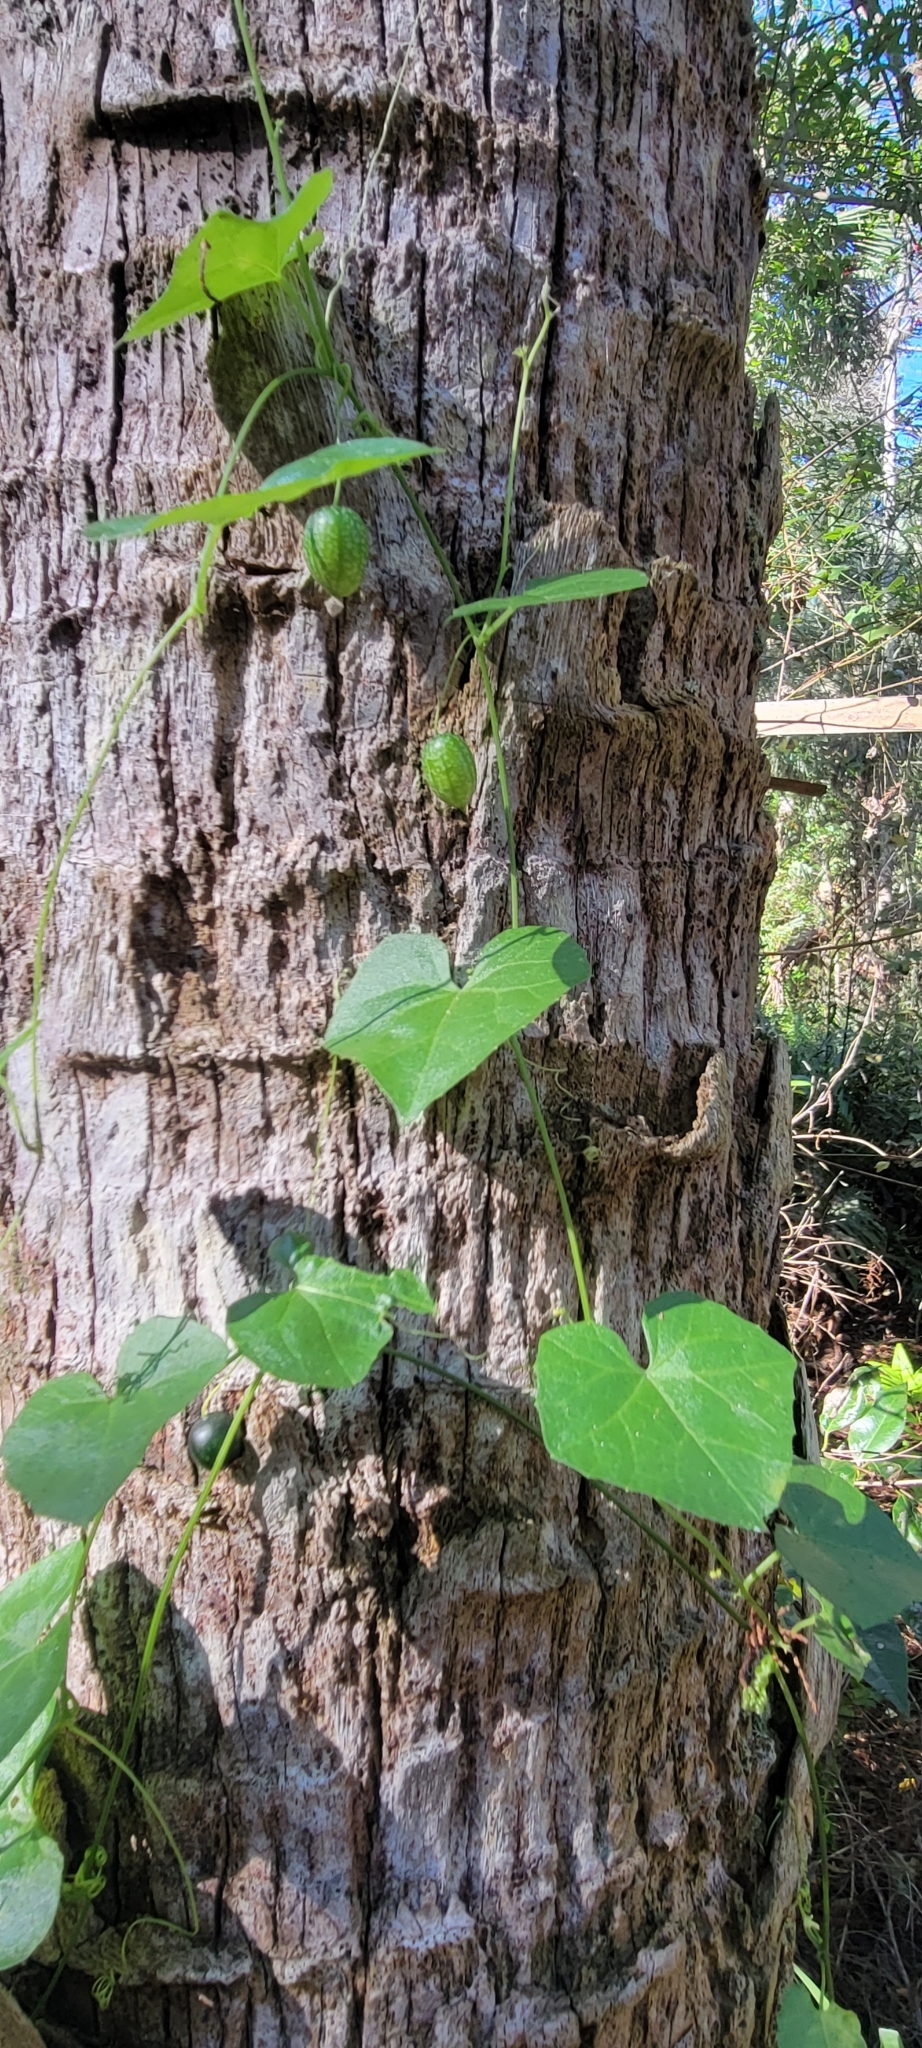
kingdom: Plantae
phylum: Tracheophyta
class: Magnoliopsida
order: Cucurbitales
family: Cucurbitaceae
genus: Melothria
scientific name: Melothria pendula
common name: Creeping-cucumber
